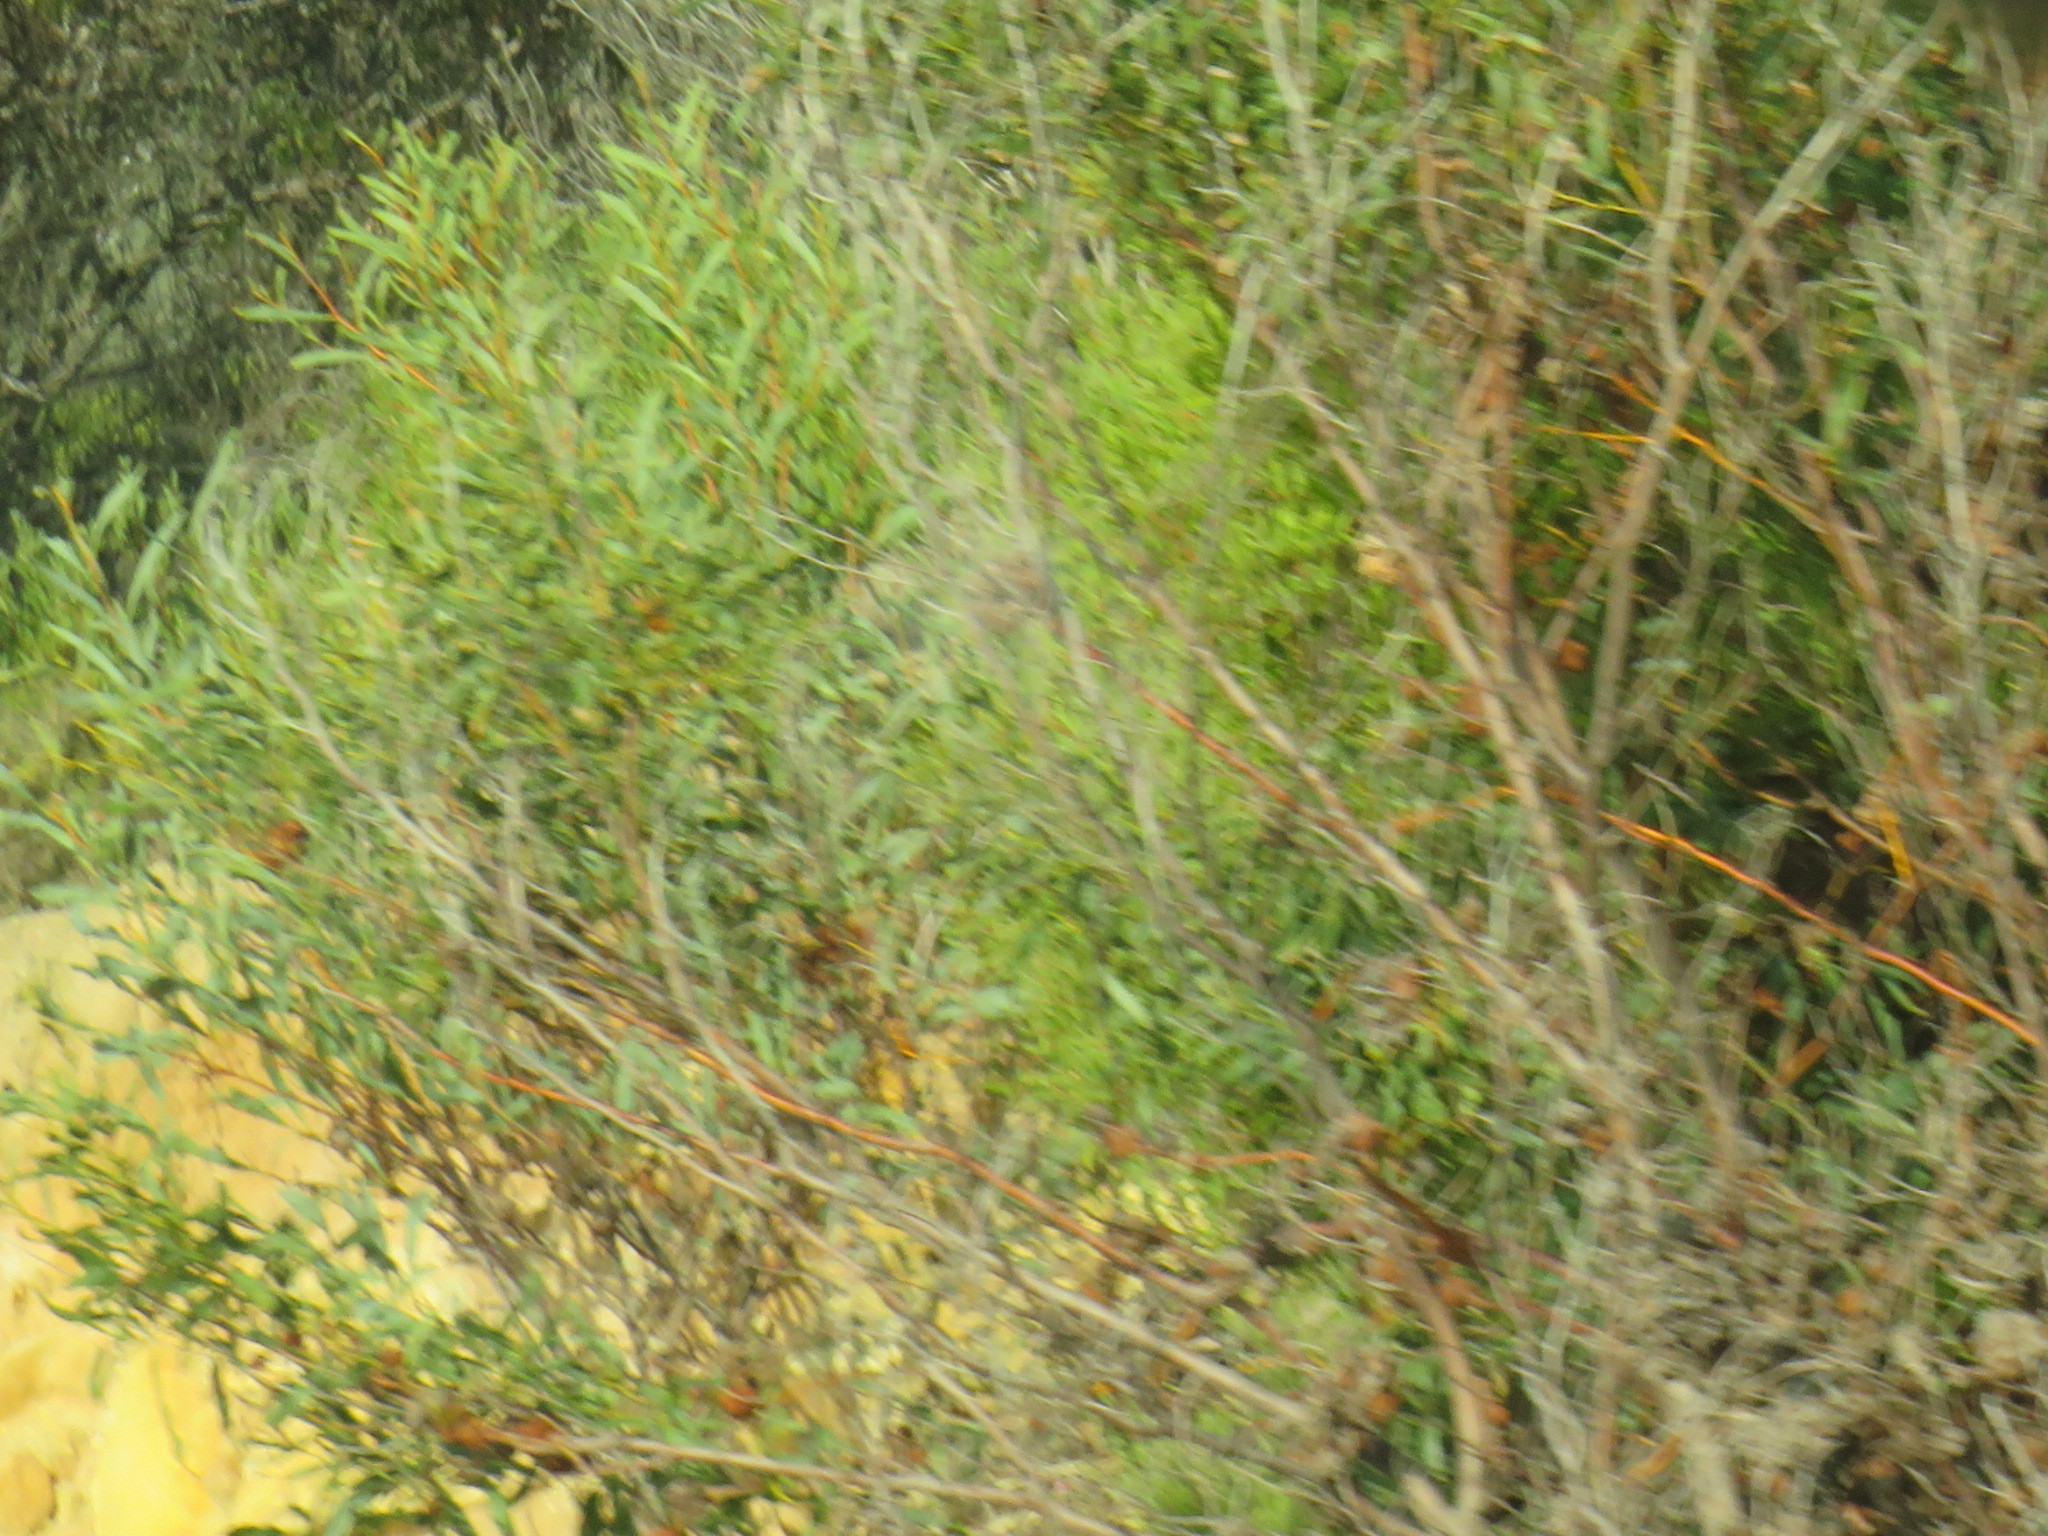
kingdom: Plantae
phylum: Tracheophyta
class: Magnoliopsida
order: Fabales
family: Fabaceae
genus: Acacia
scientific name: Acacia saligna
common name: Orange wattle
